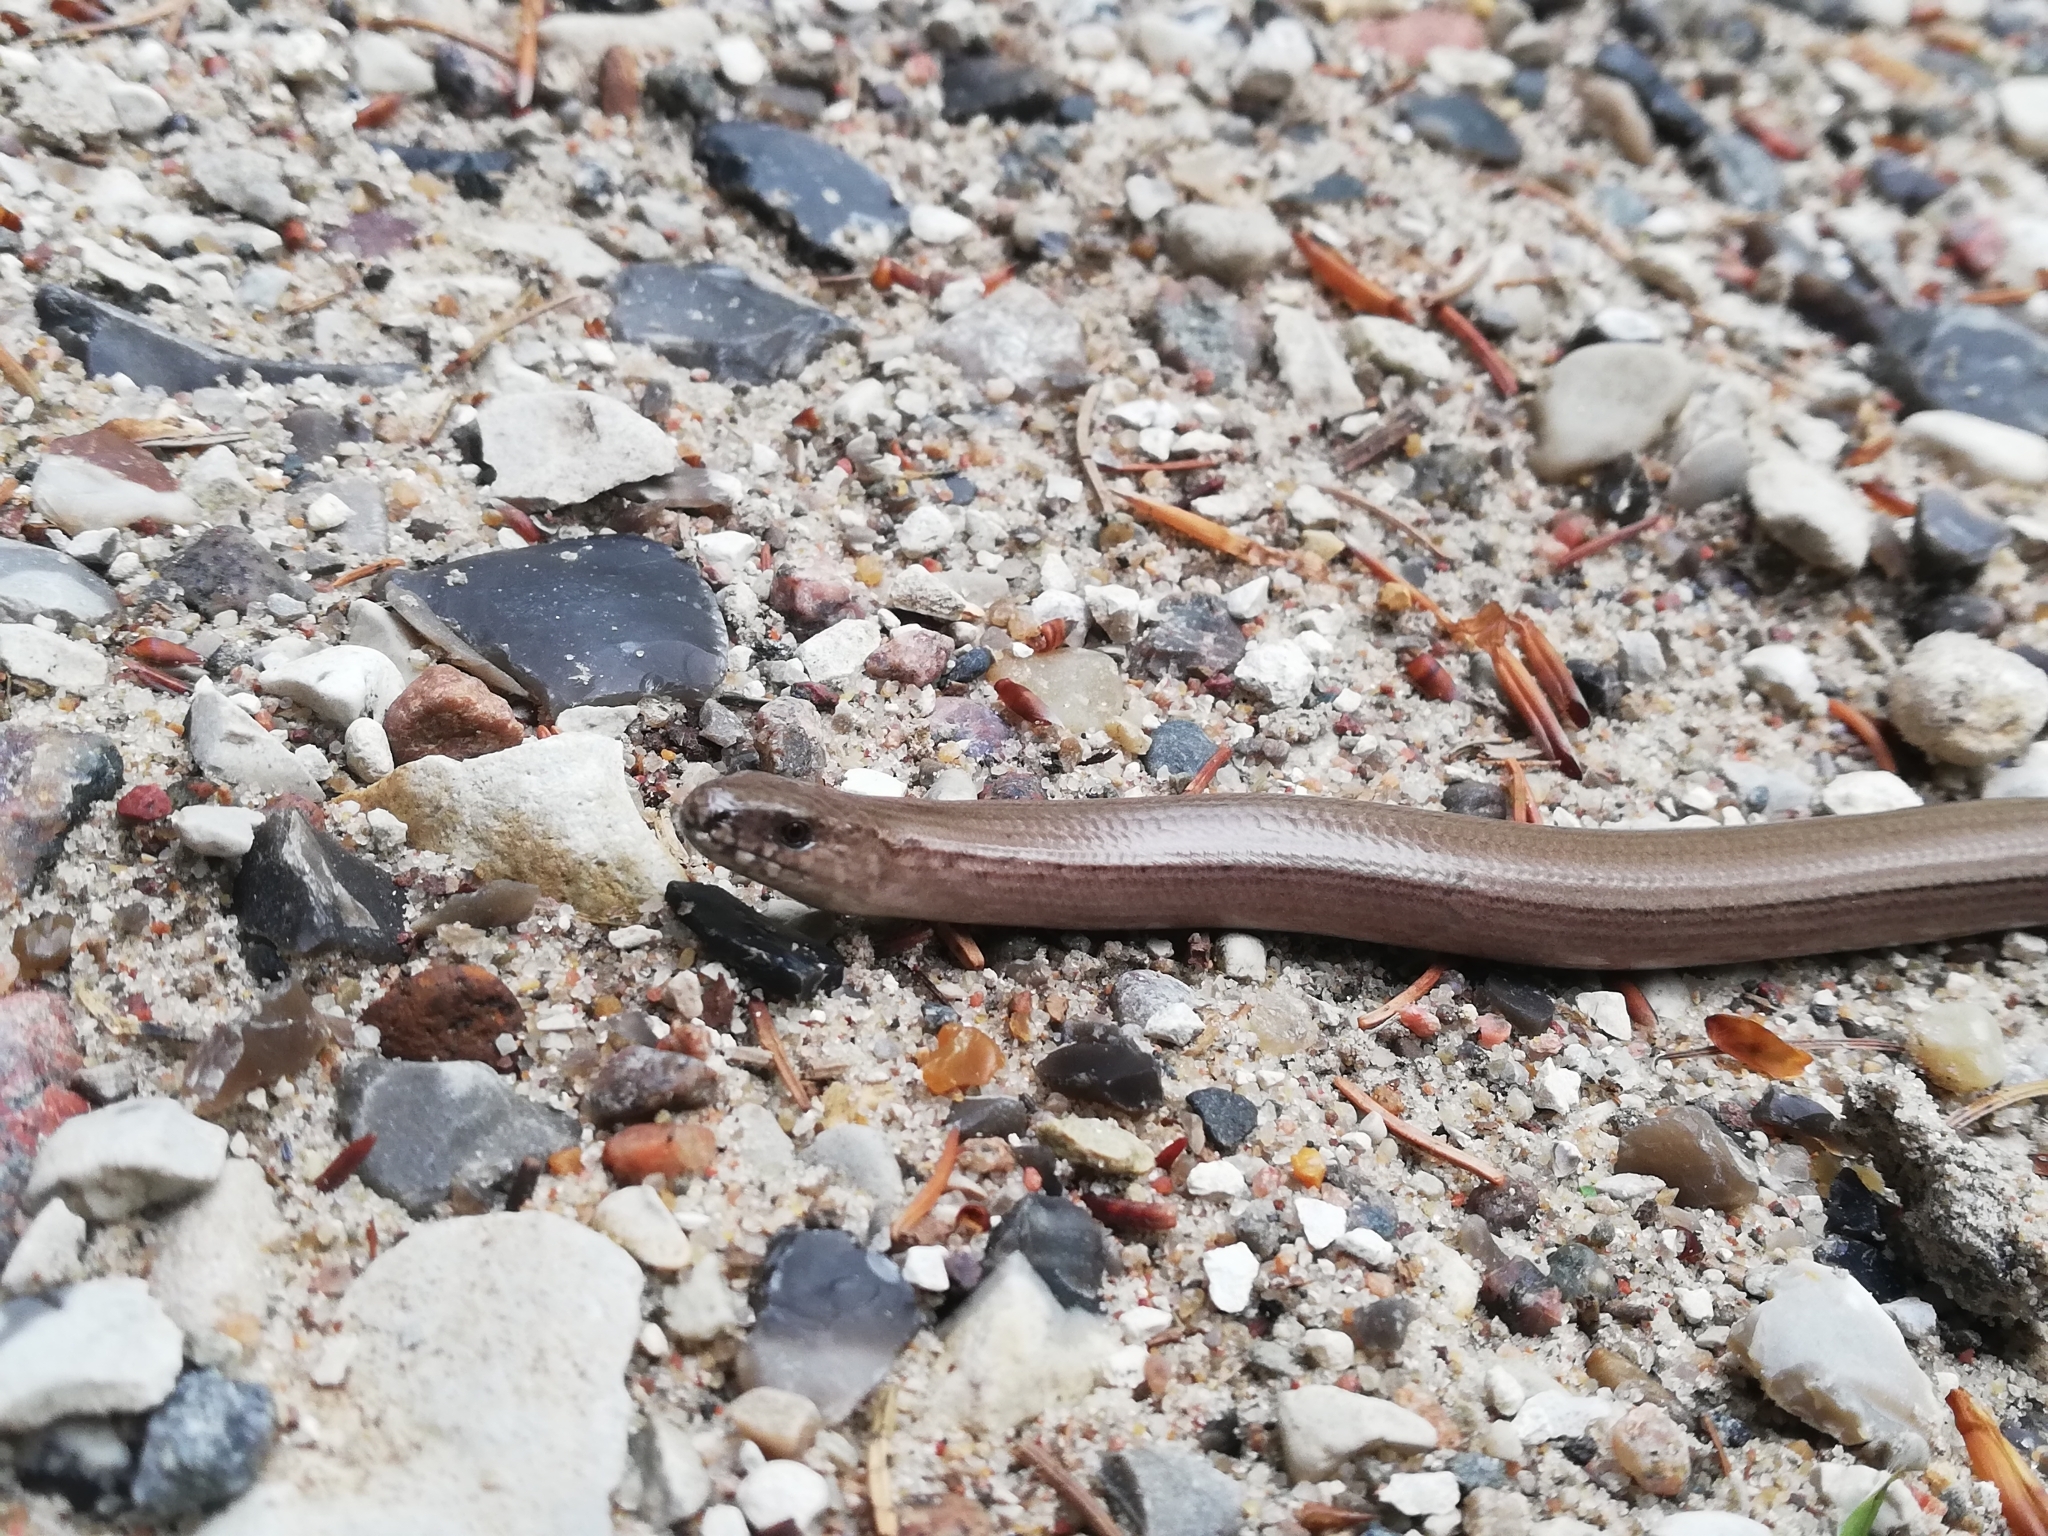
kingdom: Animalia
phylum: Chordata
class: Squamata
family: Anguidae
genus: Anguis
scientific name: Anguis fragilis
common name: Slow worm
